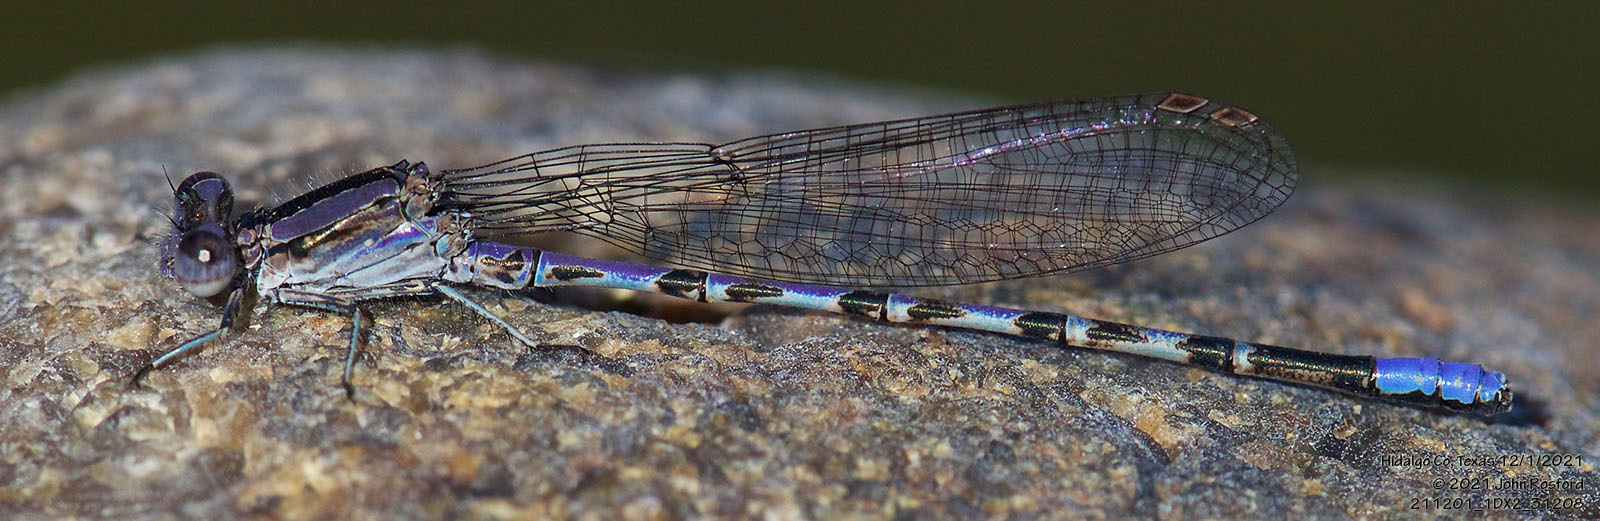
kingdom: Animalia
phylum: Arthropoda
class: Insecta
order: Odonata
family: Coenagrionidae
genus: Argia
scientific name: Argia immunda
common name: Kiowa dancer
